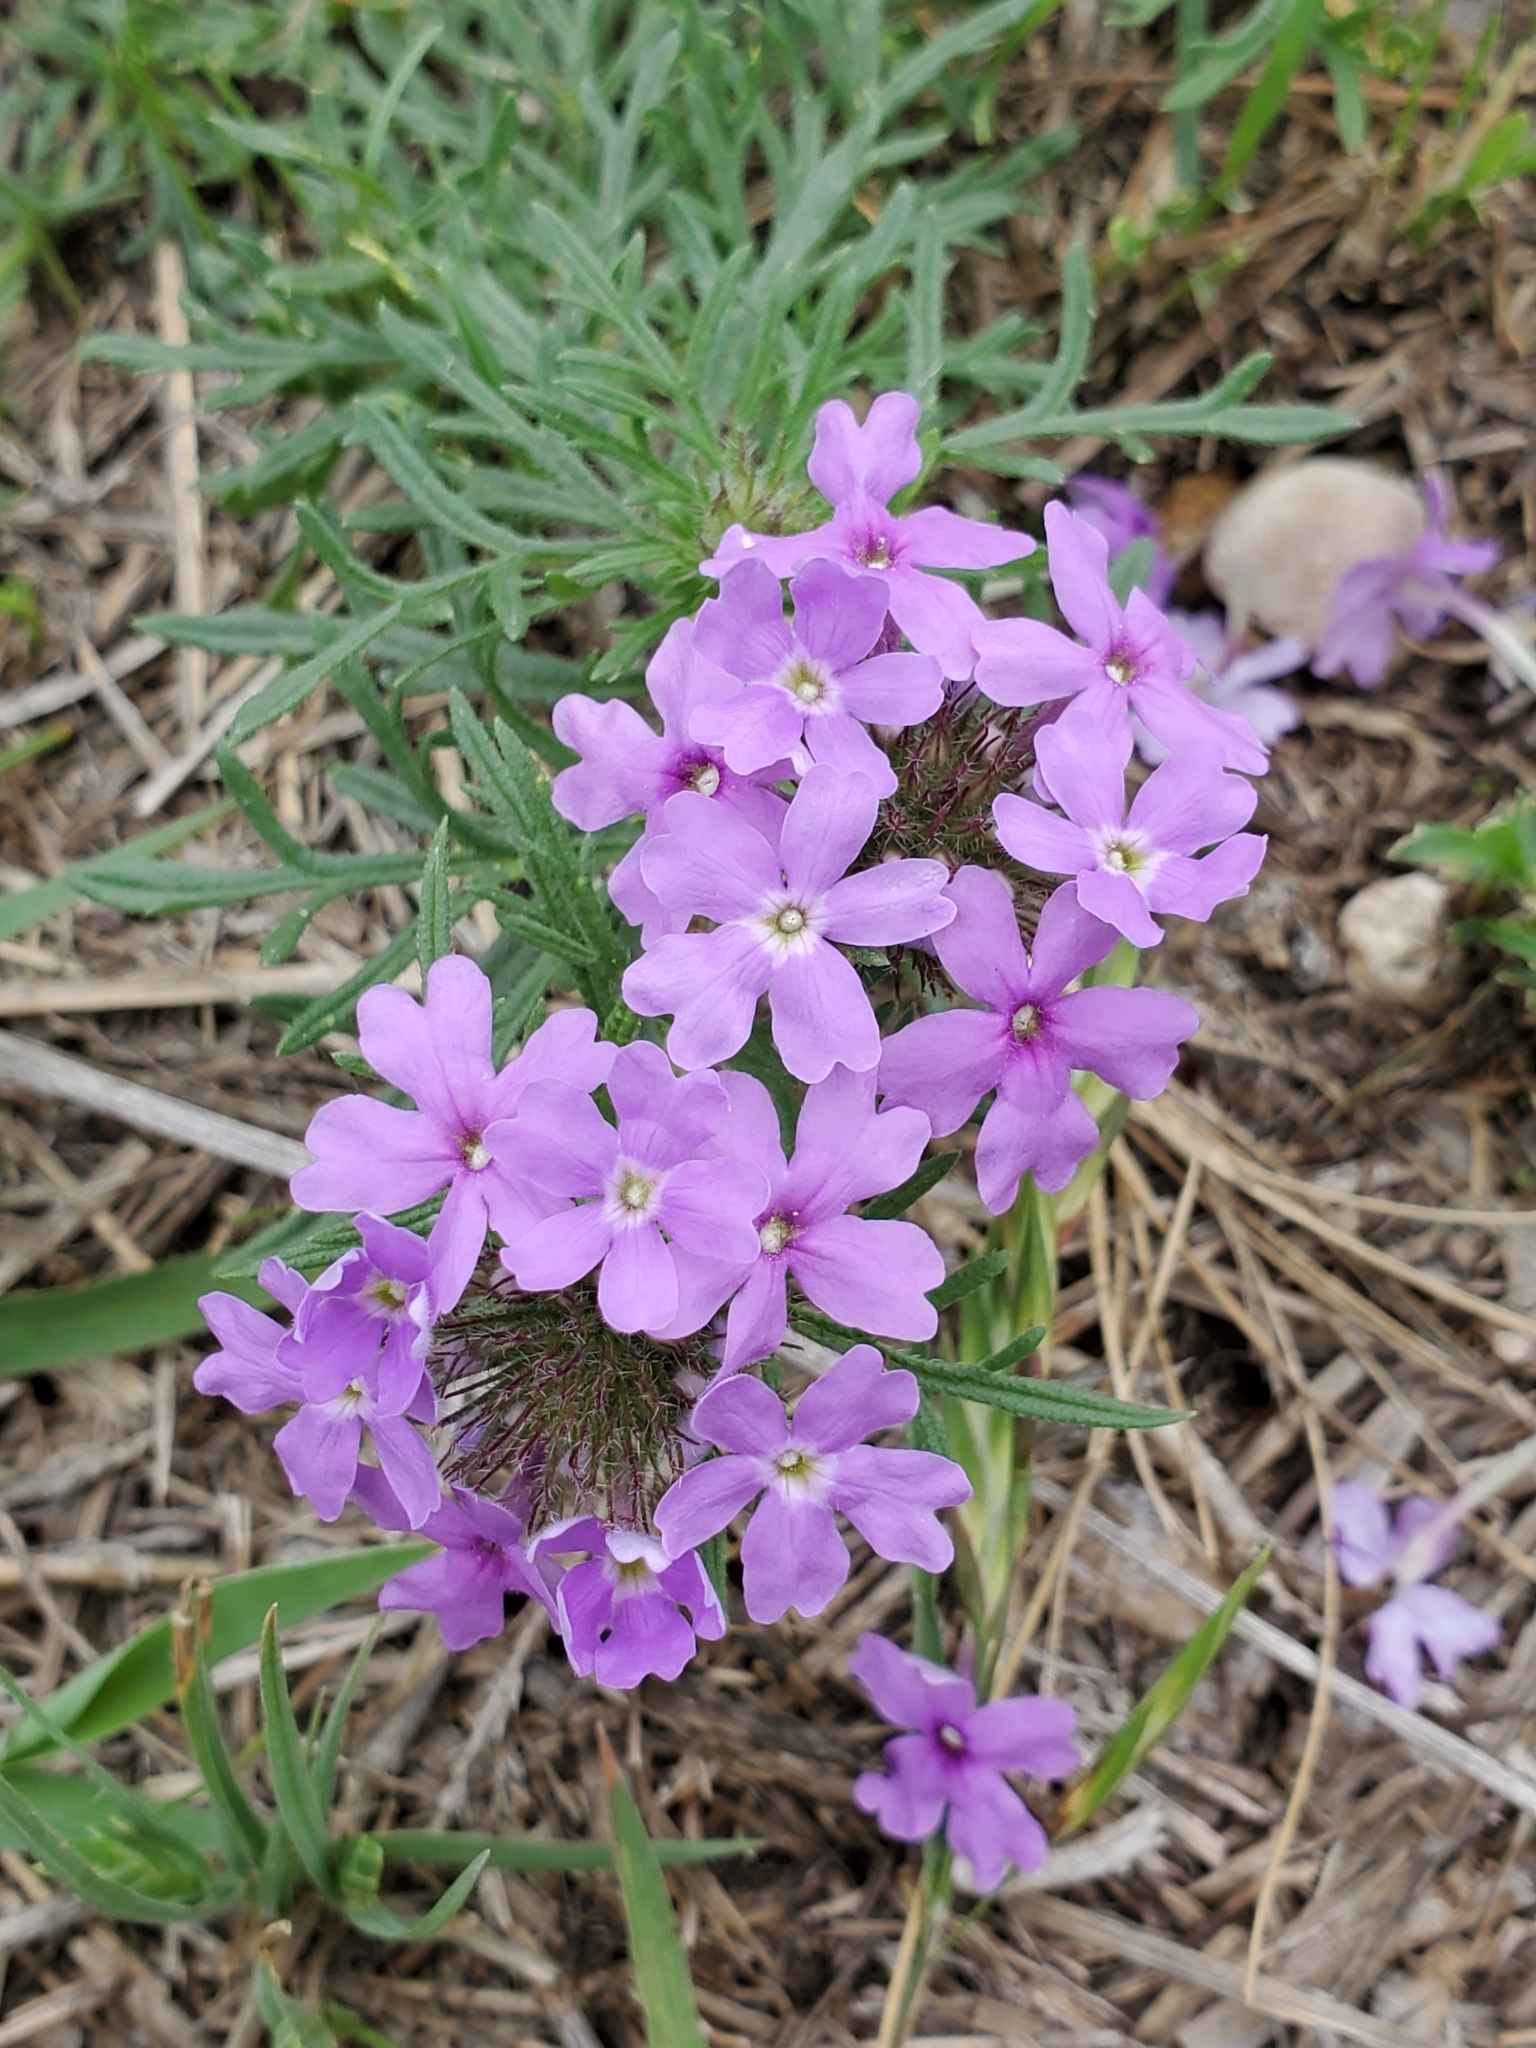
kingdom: Plantae
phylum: Tracheophyta
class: Magnoliopsida
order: Lamiales
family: Verbenaceae
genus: Verbena
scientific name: Verbena bipinnatifida
